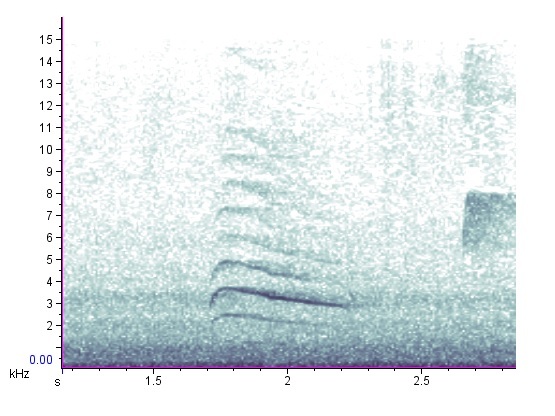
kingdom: Animalia
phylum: Chordata
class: Aves
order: Piciformes
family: Picidae
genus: Sphyrapicus
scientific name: Sphyrapicus varius
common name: Yellow-bellied sapsucker
